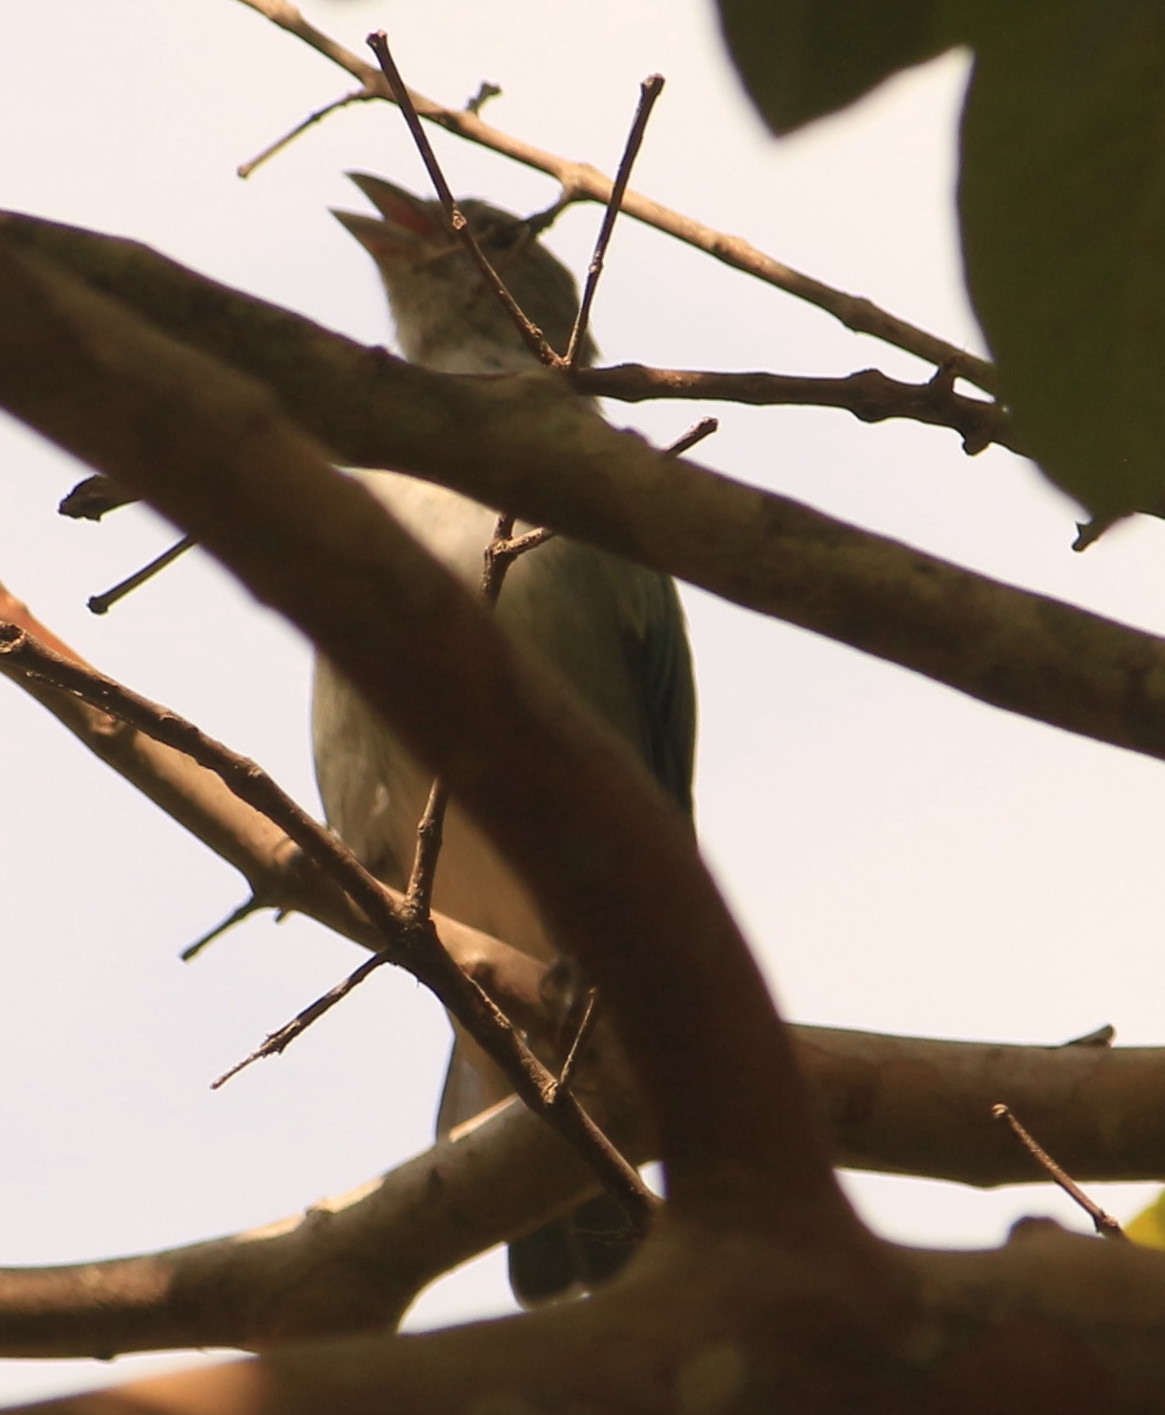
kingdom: Animalia
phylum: Chordata
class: Aves
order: Passeriformes
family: Thraupidae
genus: Thraupis
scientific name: Thraupis sayaca
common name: Sayaca tanager
